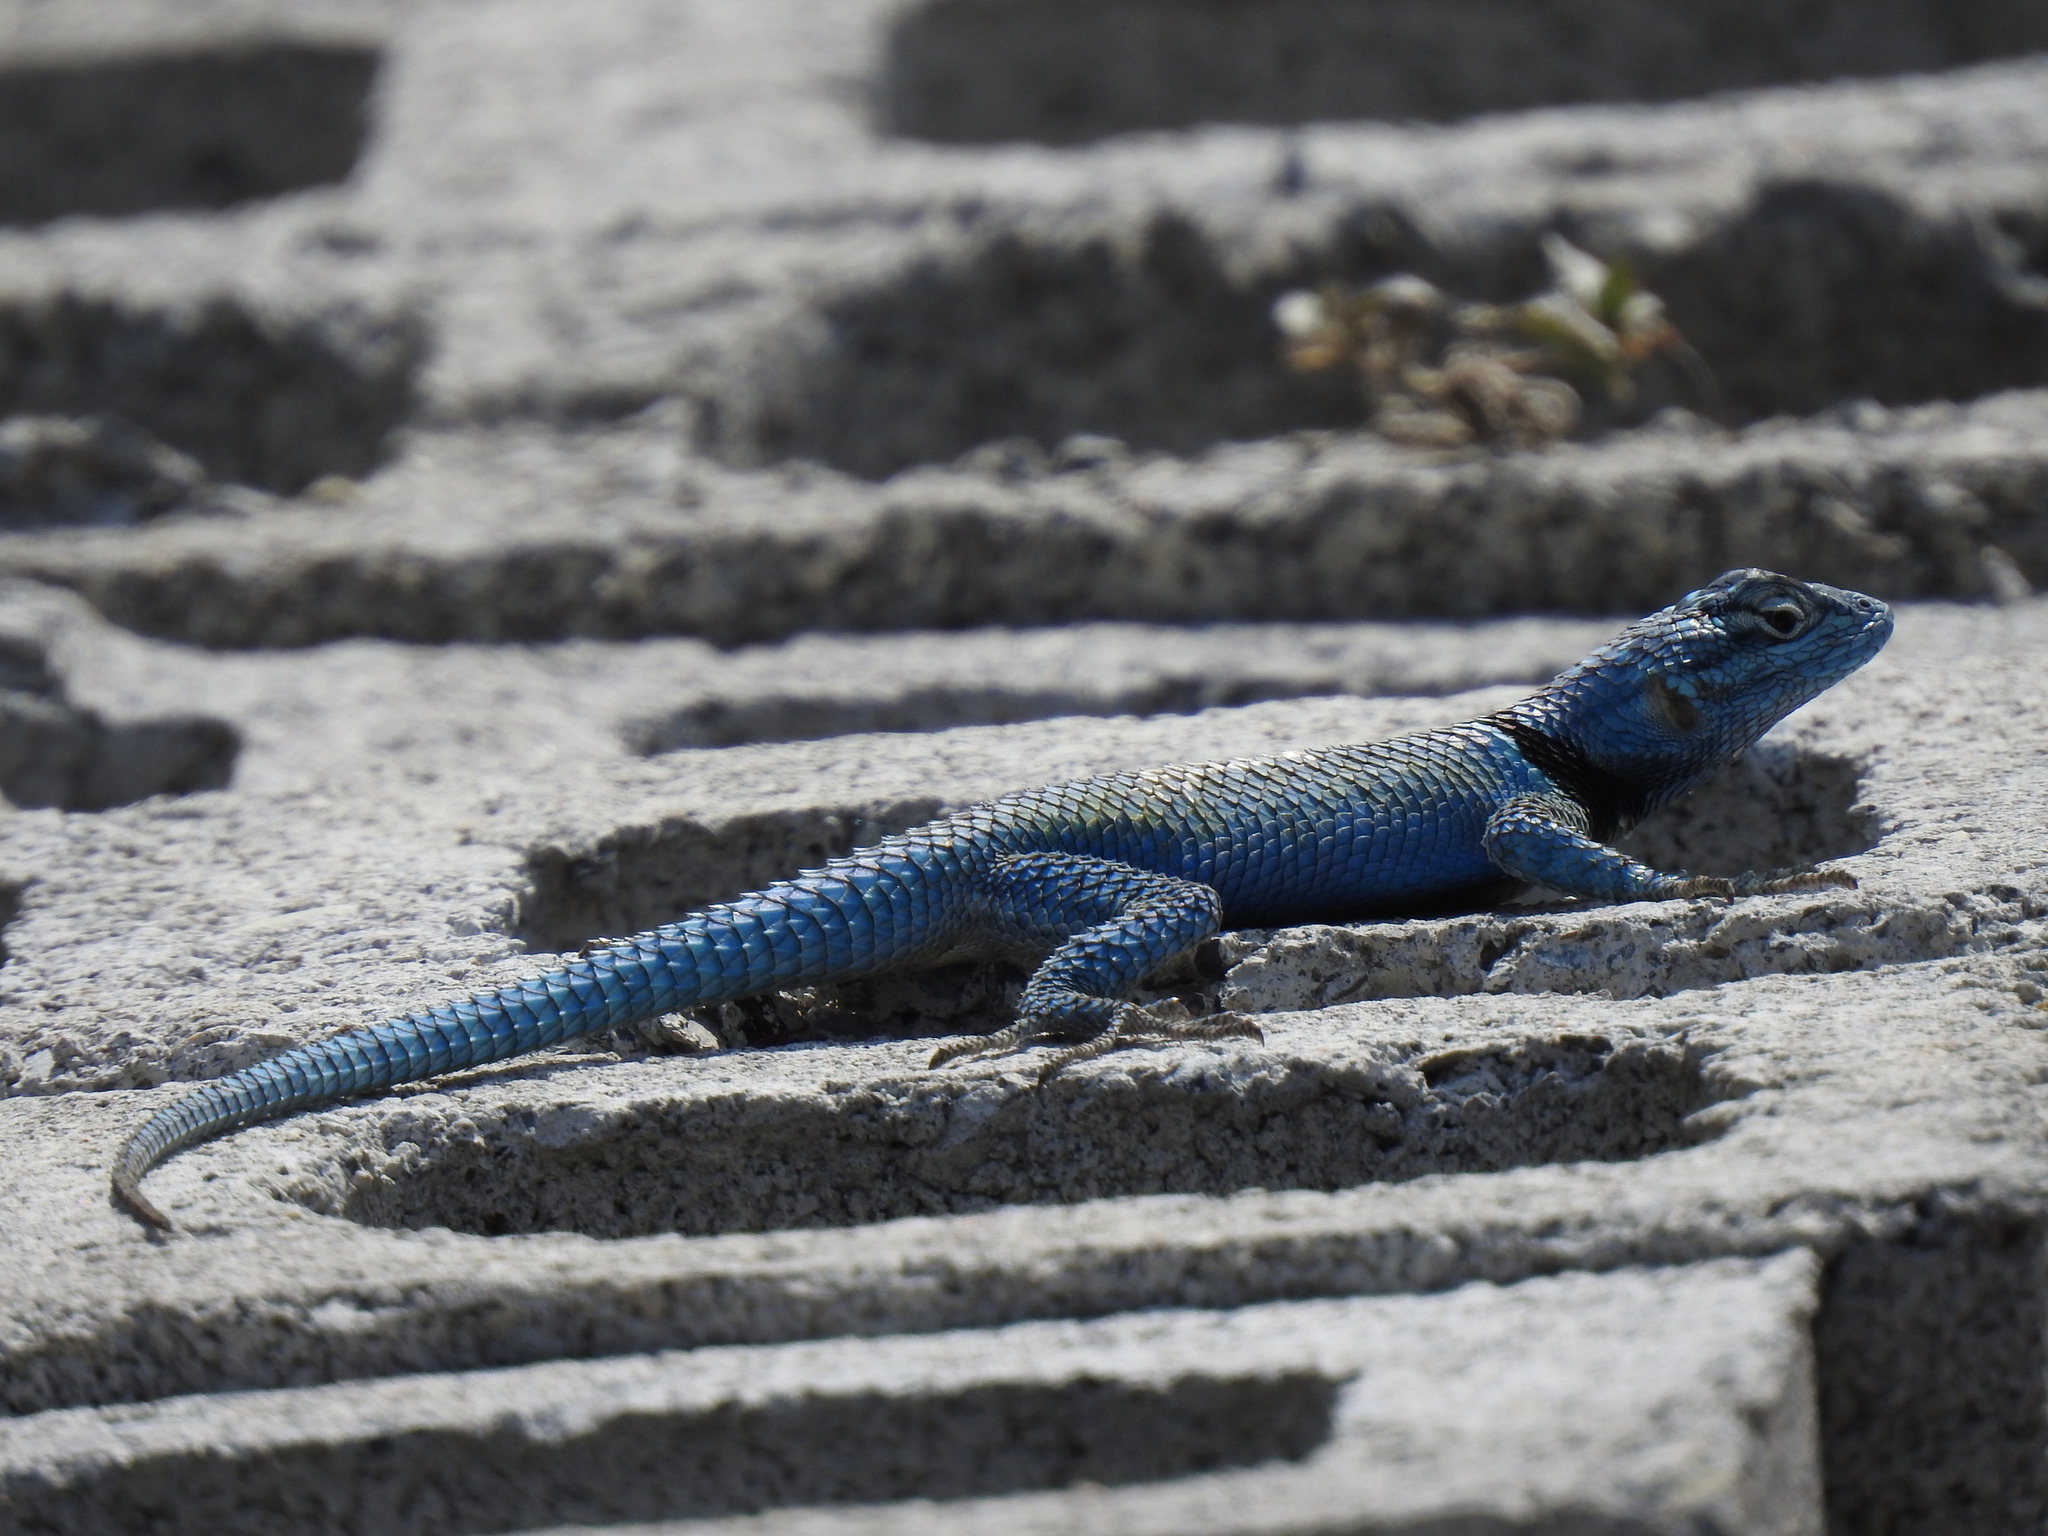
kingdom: Animalia
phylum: Chordata
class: Squamata
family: Phrynosomatidae
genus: Sceloporus
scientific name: Sceloporus minor
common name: Minor lizard
